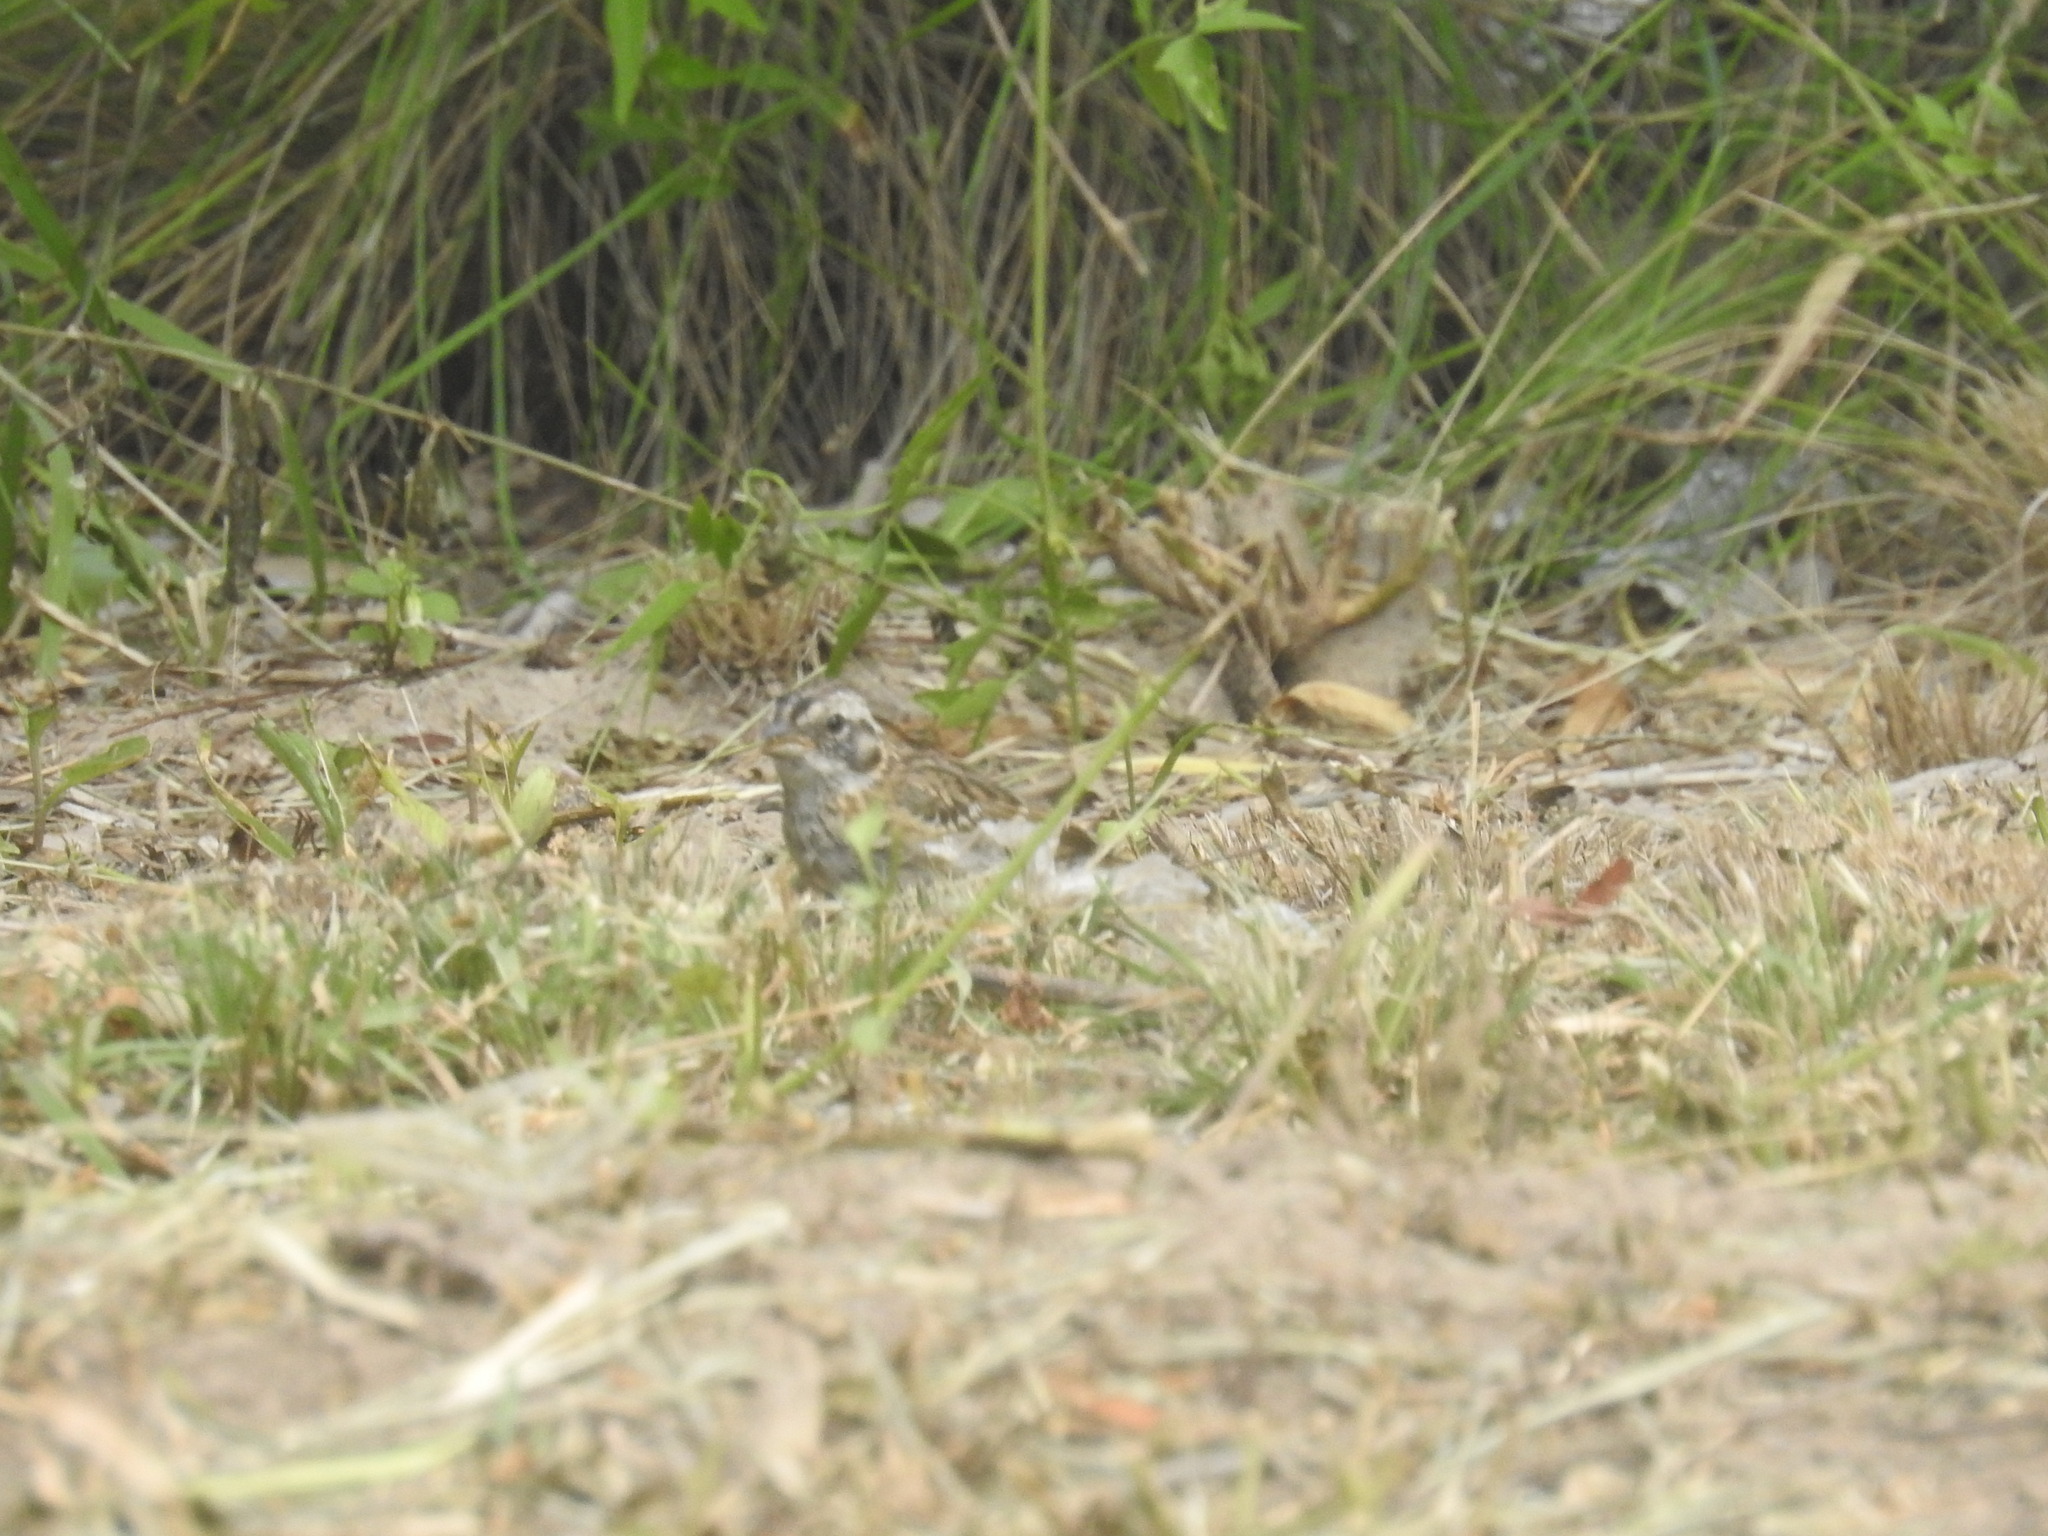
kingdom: Animalia
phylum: Chordata
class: Aves
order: Passeriformes
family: Passerellidae
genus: Zonotrichia
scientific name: Zonotrichia capensis
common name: Rufous-collared sparrow
